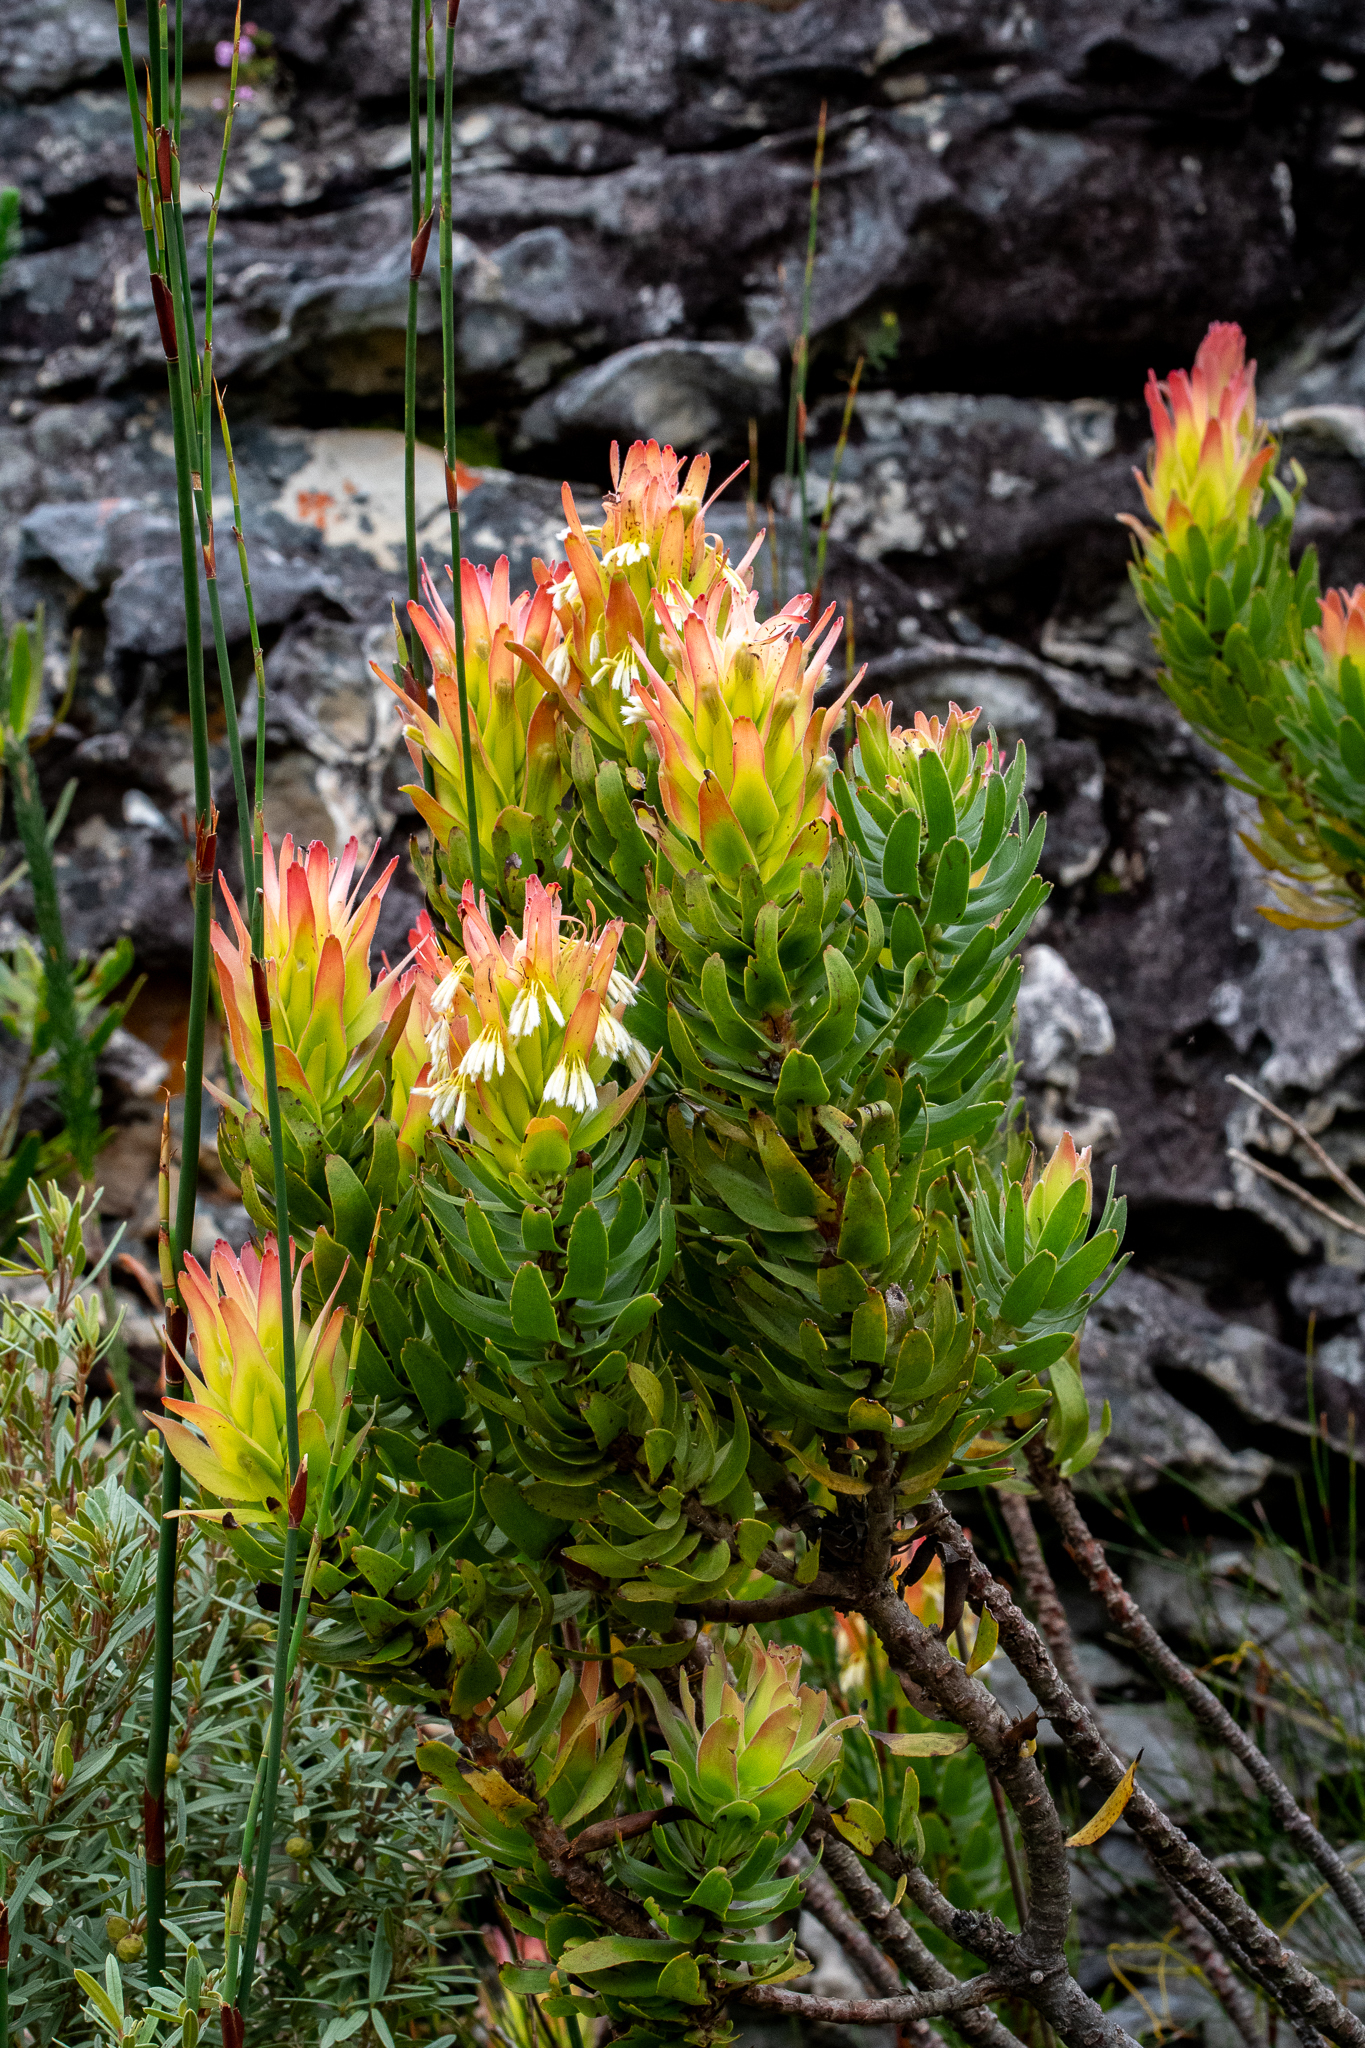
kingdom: Plantae
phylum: Tracheophyta
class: Magnoliopsida
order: Proteales
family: Proteaceae
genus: Mimetes
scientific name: Mimetes cucullatus
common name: Common pagoda
